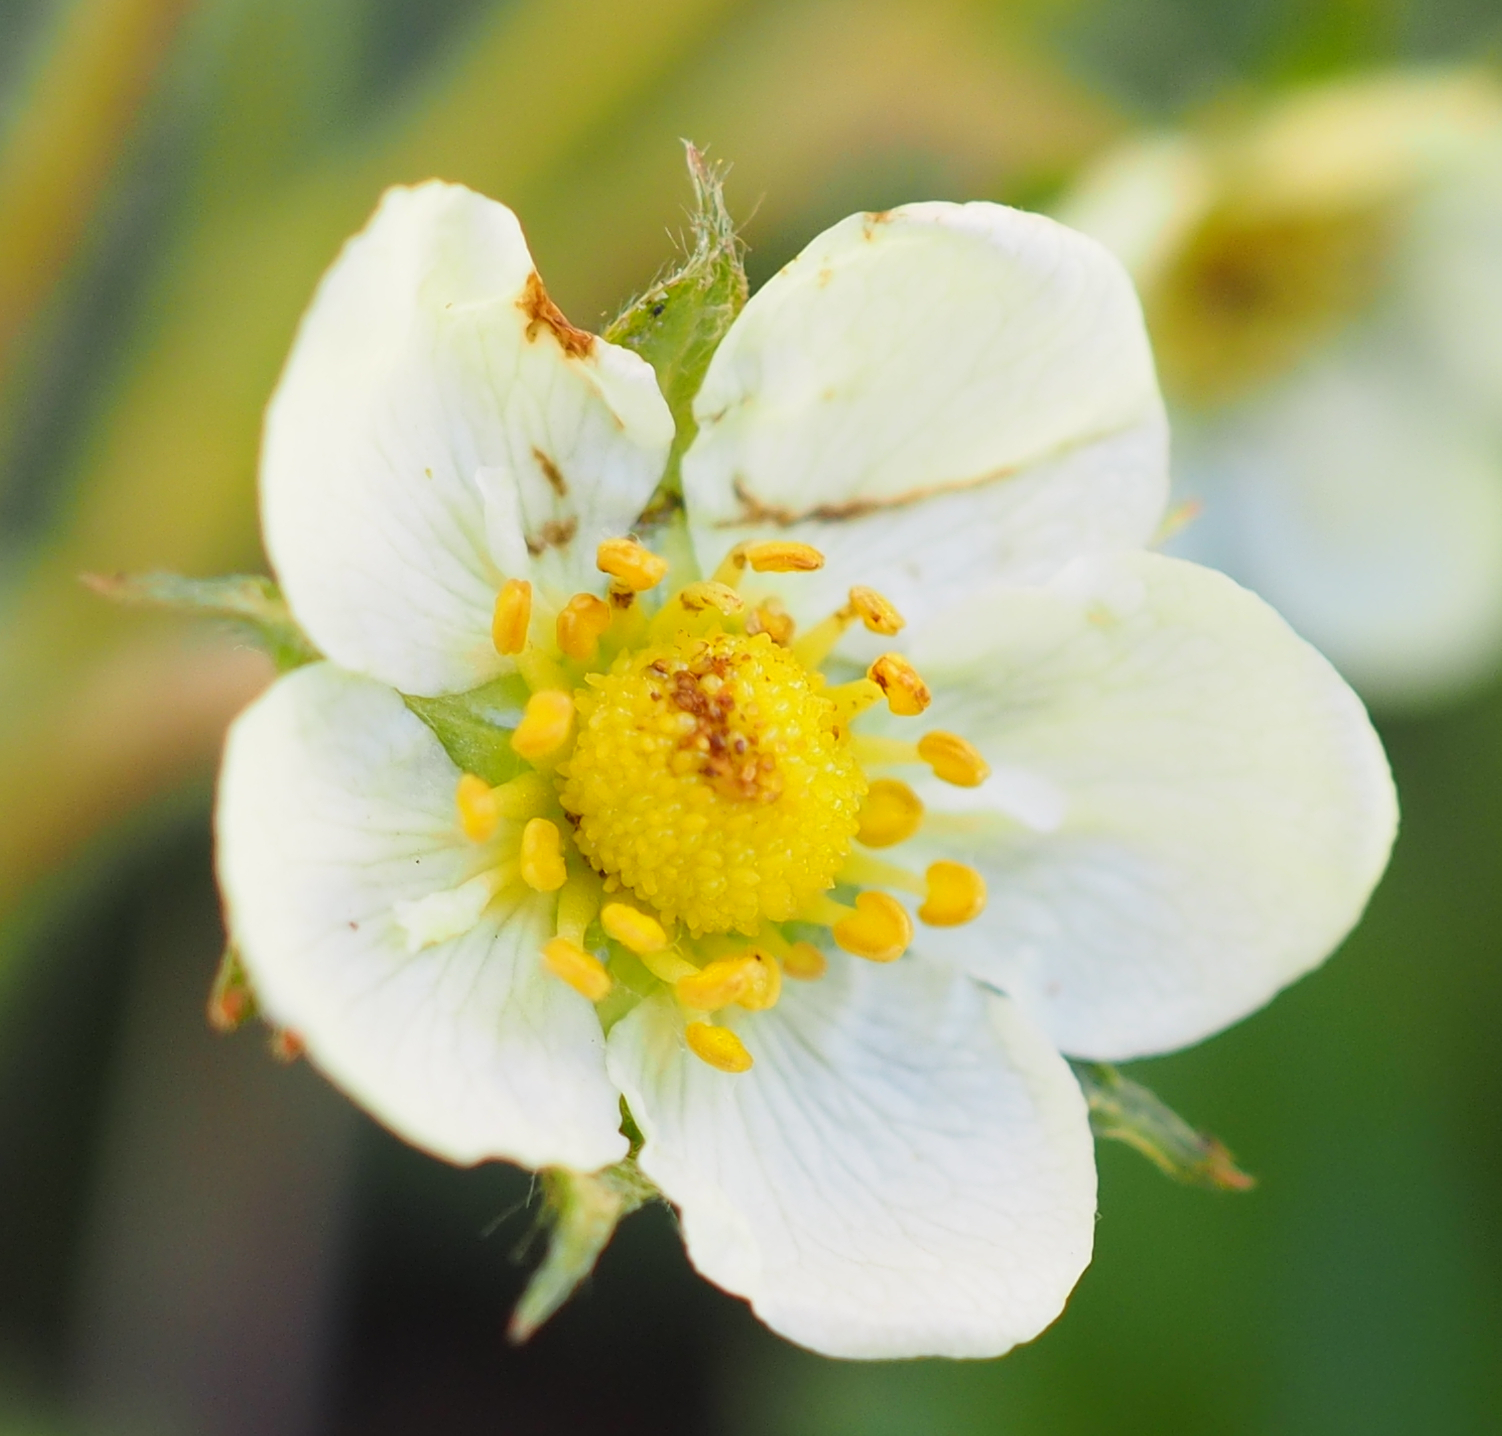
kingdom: Plantae
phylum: Tracheophyta
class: Magnoliopsida
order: Rosales
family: Rosaceae
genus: Fragaria
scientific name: Fragaria vesca
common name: Wild strawberry
